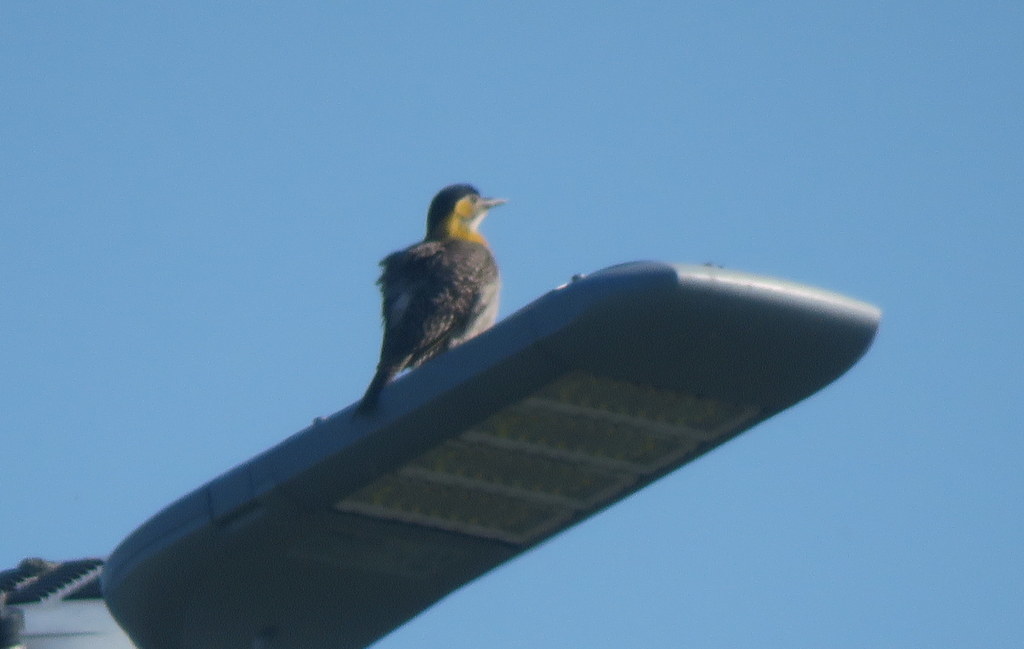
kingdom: Animalia
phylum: Chordata
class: Aves
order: Piciformes
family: Picidae
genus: Colaptes
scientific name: Colaptes campestris
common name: Campo flicker
